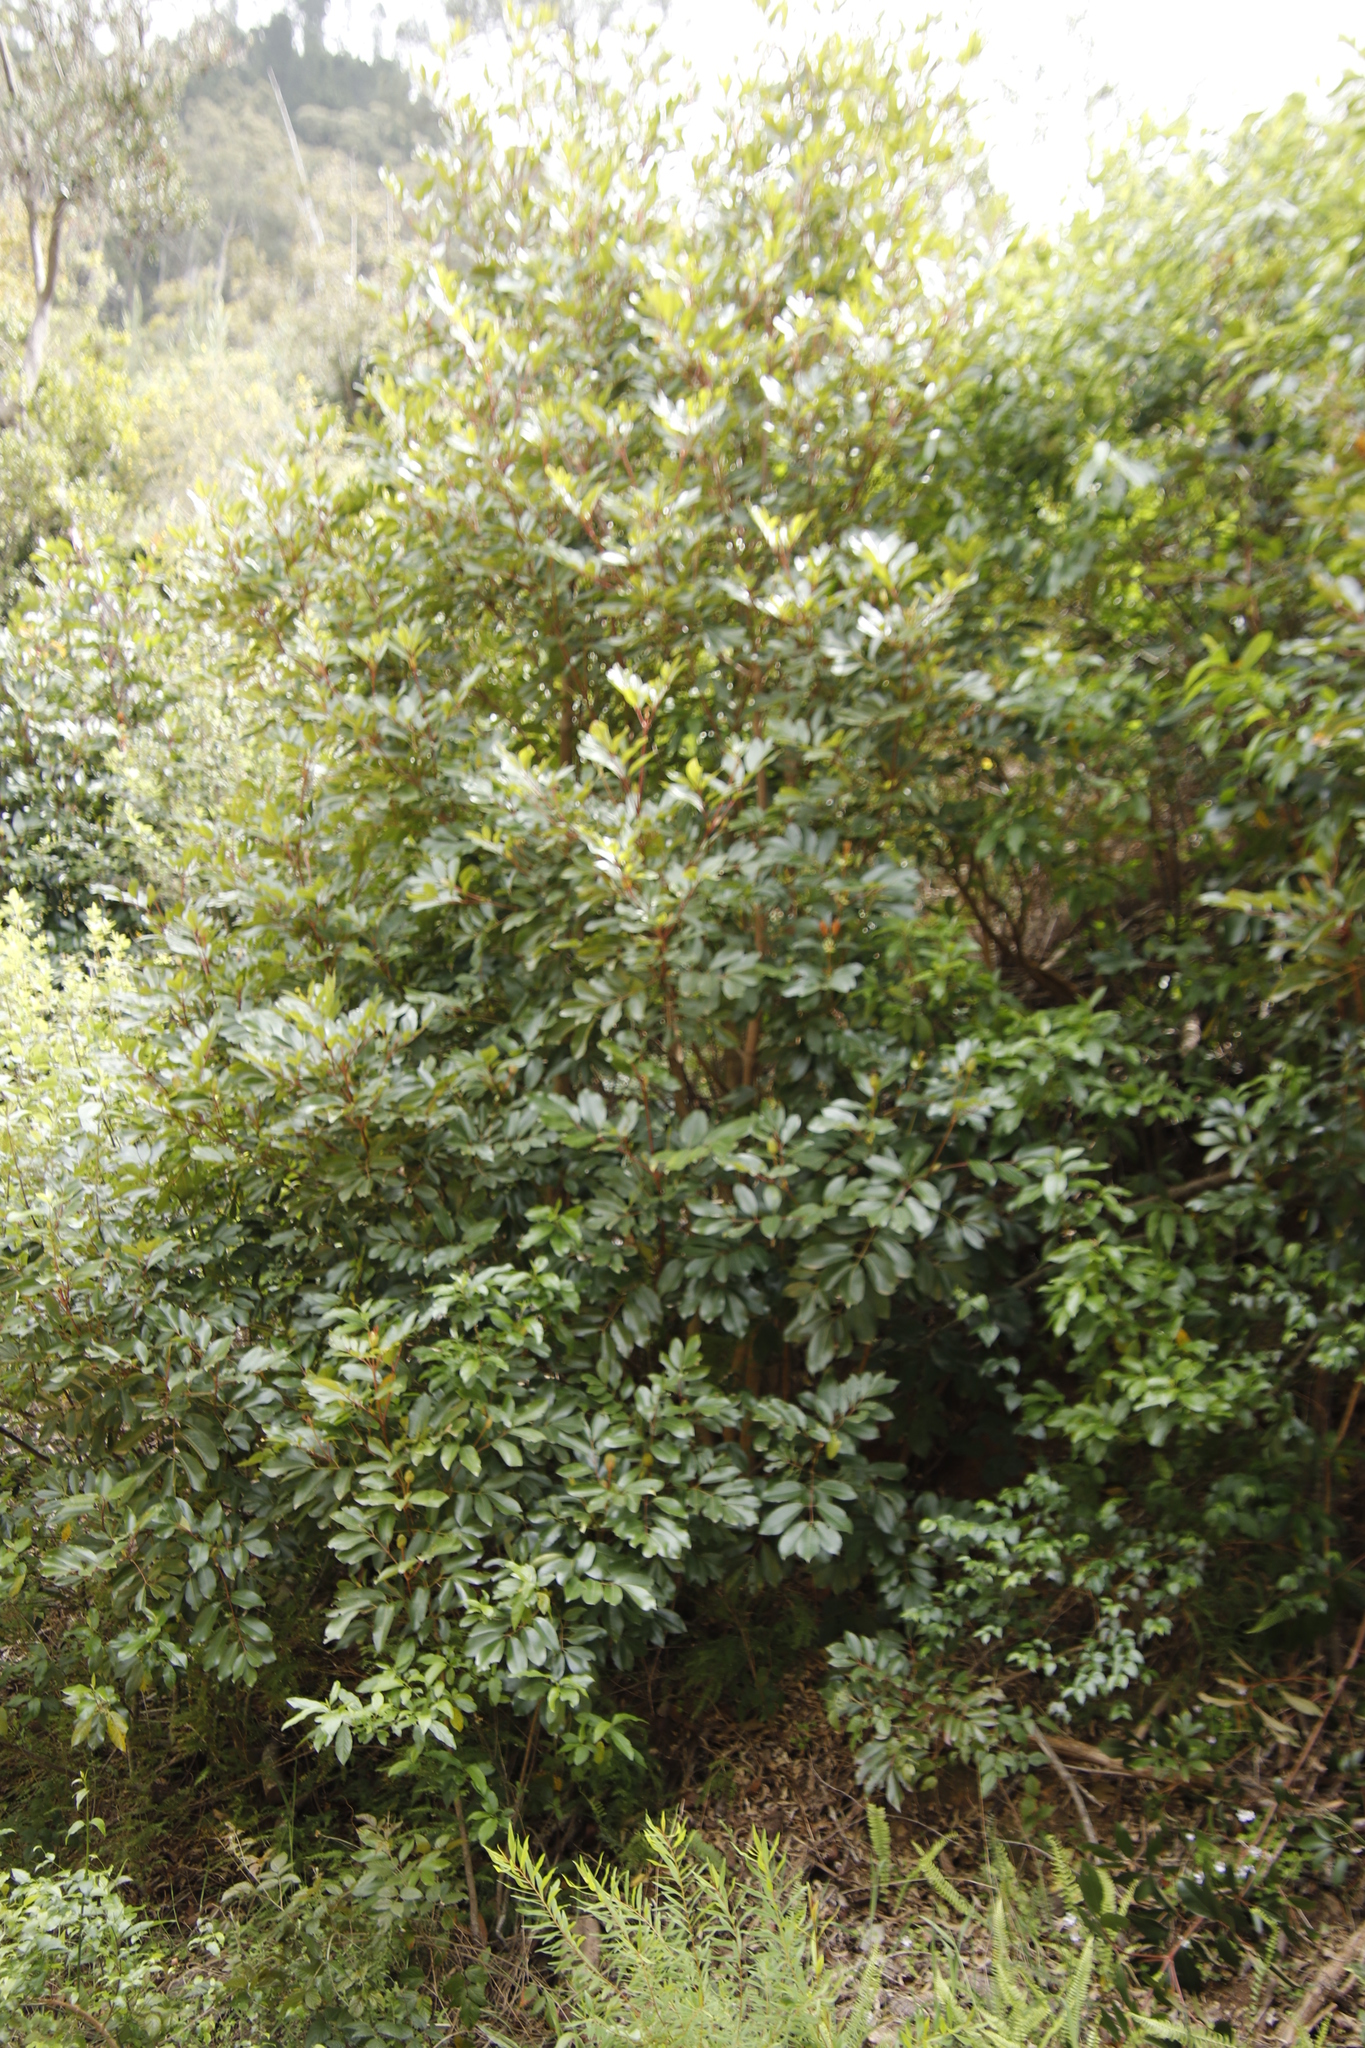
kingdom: Plantae
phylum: Tracheophyta
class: Magnoliopsida
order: Oxalidales
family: Cunoniaceae
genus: Cunonia
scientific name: Cunonia capensis
